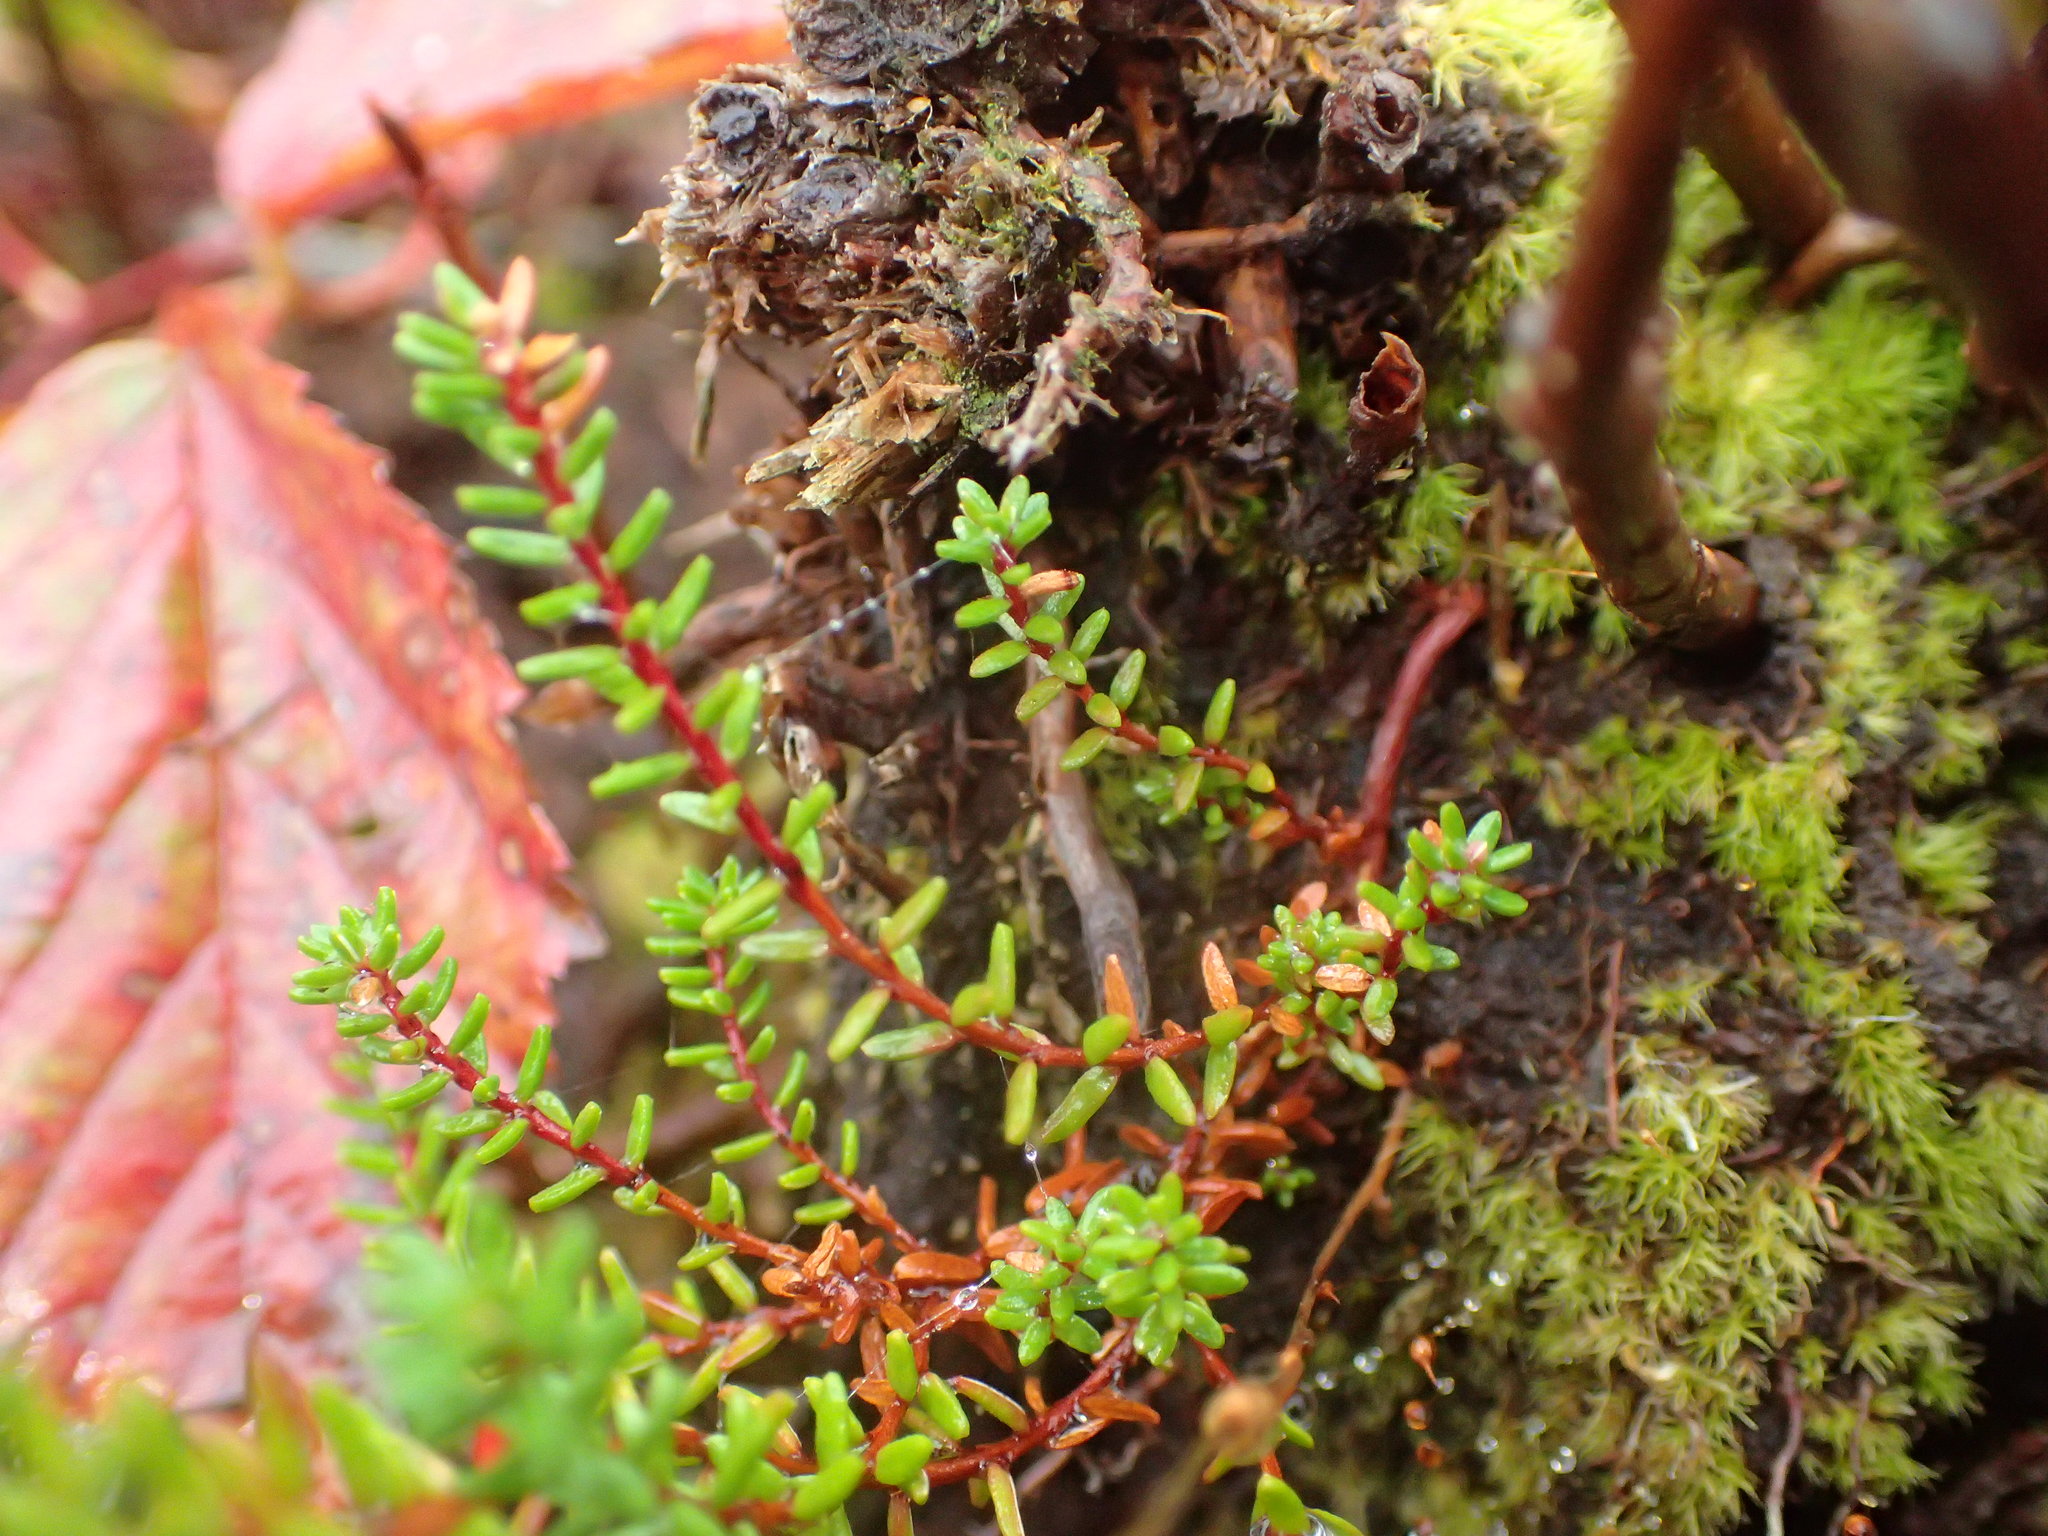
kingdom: Plantae
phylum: Tracheophyta
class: Magnoliopsida
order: Ericales
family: Ericaceae
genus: Empetrum
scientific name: Empetrum nigrum
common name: Black crowberry
